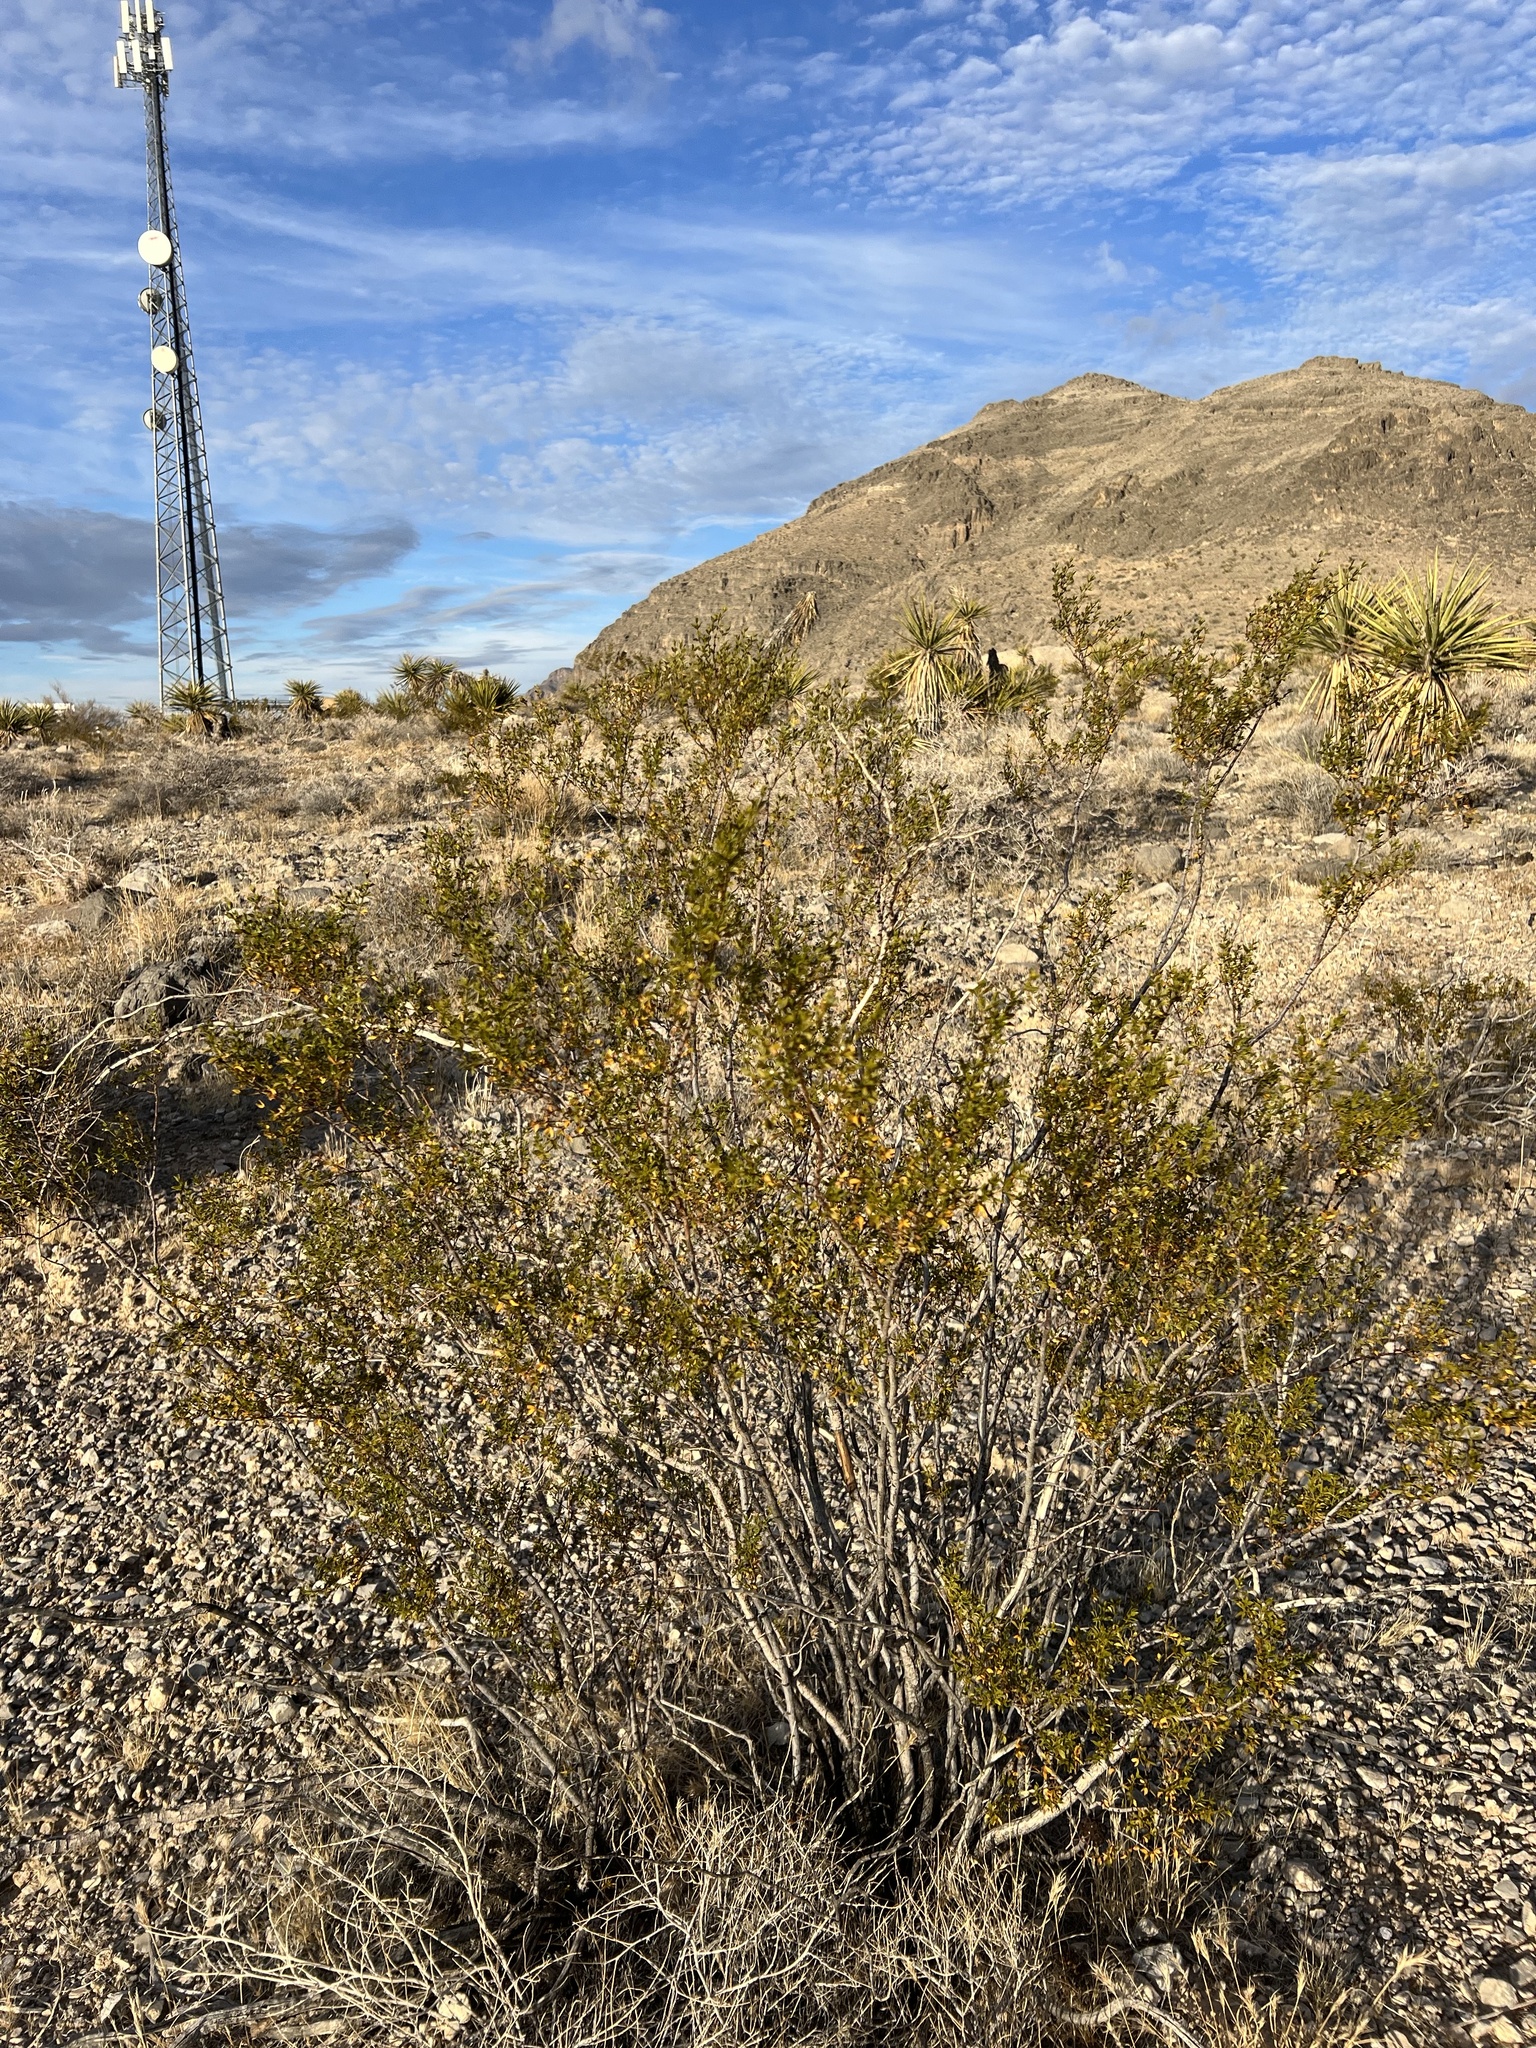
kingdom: Plantae
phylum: Tracheophyta
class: Magnoliopsida
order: Zygophyllales
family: Zygophyllaceae
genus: Larrea
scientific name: Larrea tridentata
